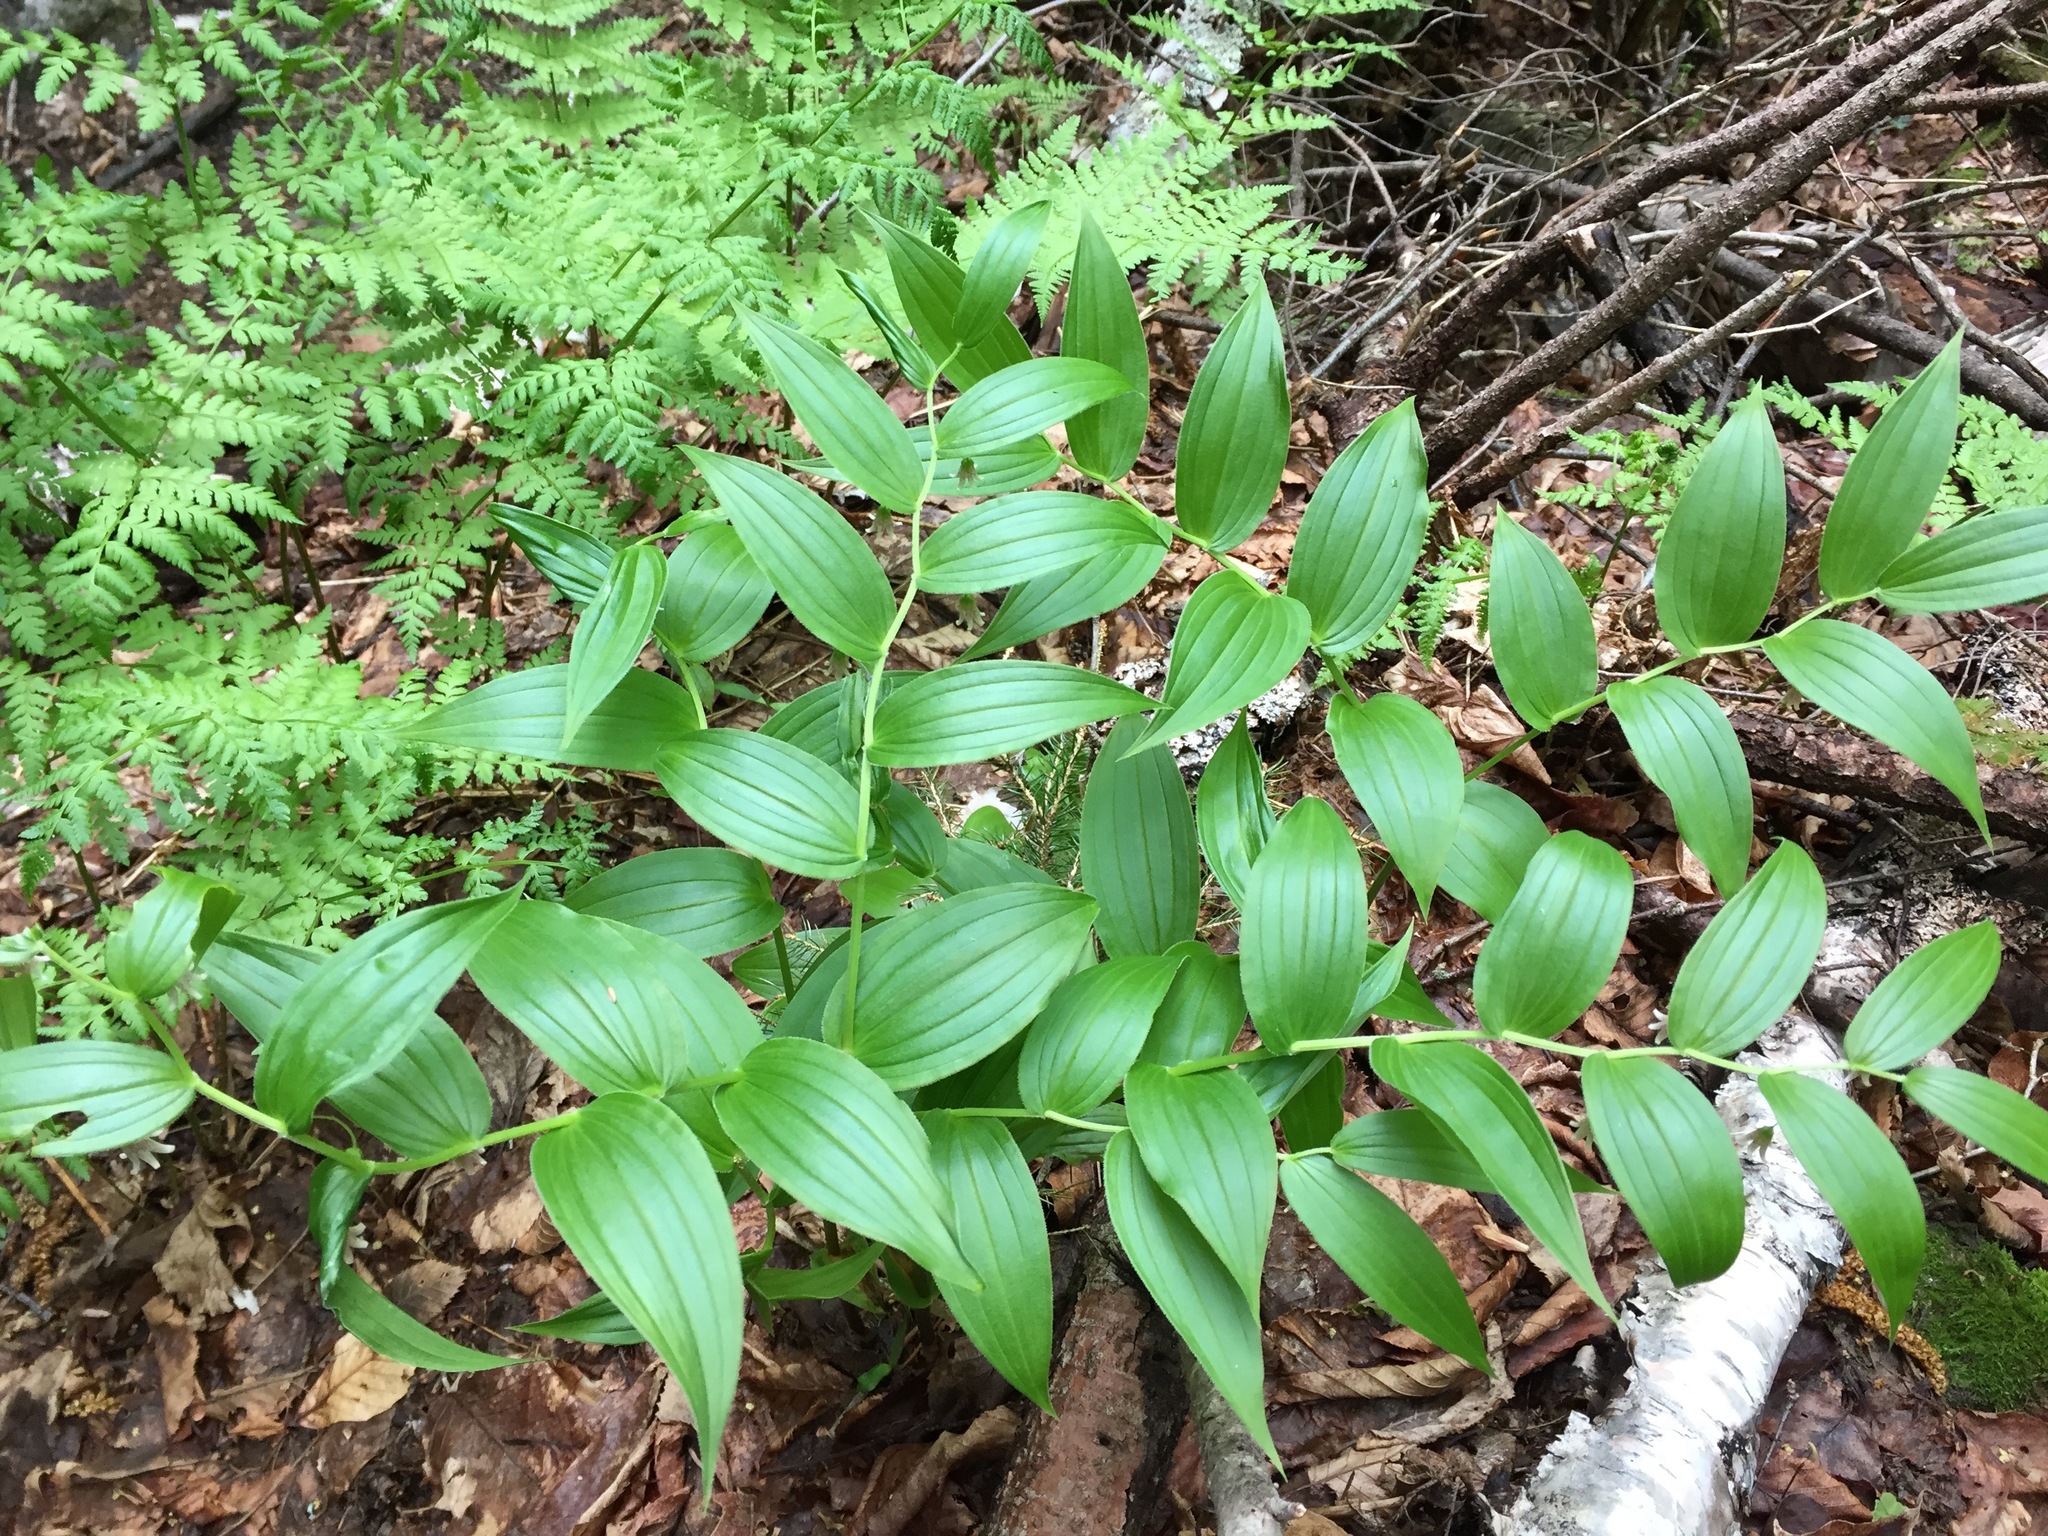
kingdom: Plantae
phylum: Tracheophyta
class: Liliopsida
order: Liliales
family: Liliaceae
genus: Streptopus
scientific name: Streptopus lanceolatus
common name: Rose mandarin
